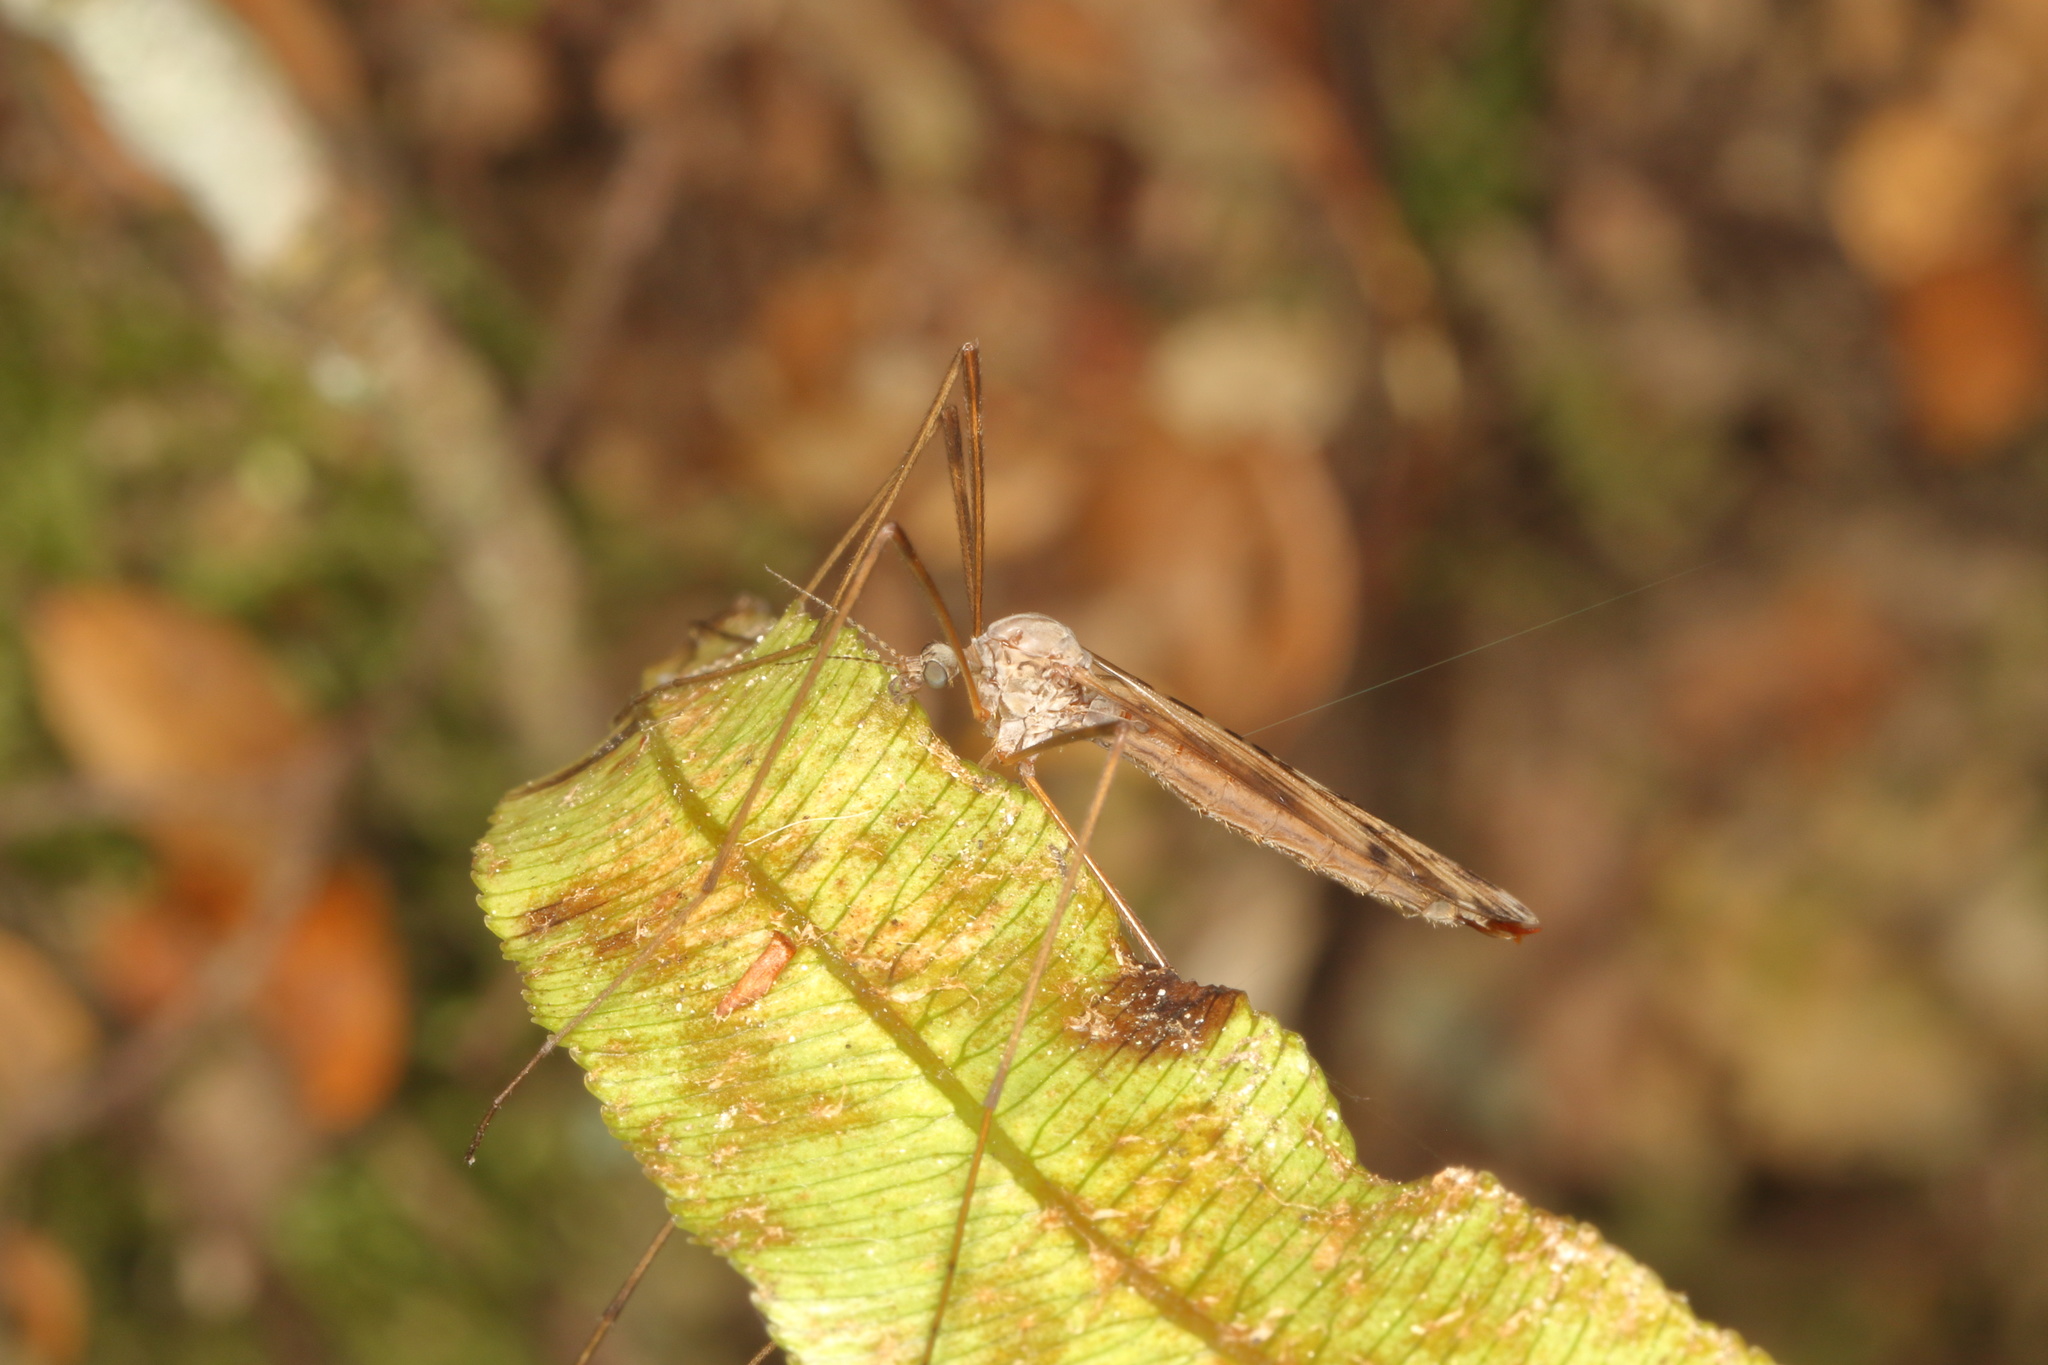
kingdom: Animalia
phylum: Arthropoda
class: Insecta
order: Diptera
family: Limoniidae
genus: Paralimnophila
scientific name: Paralimnophila skusei
